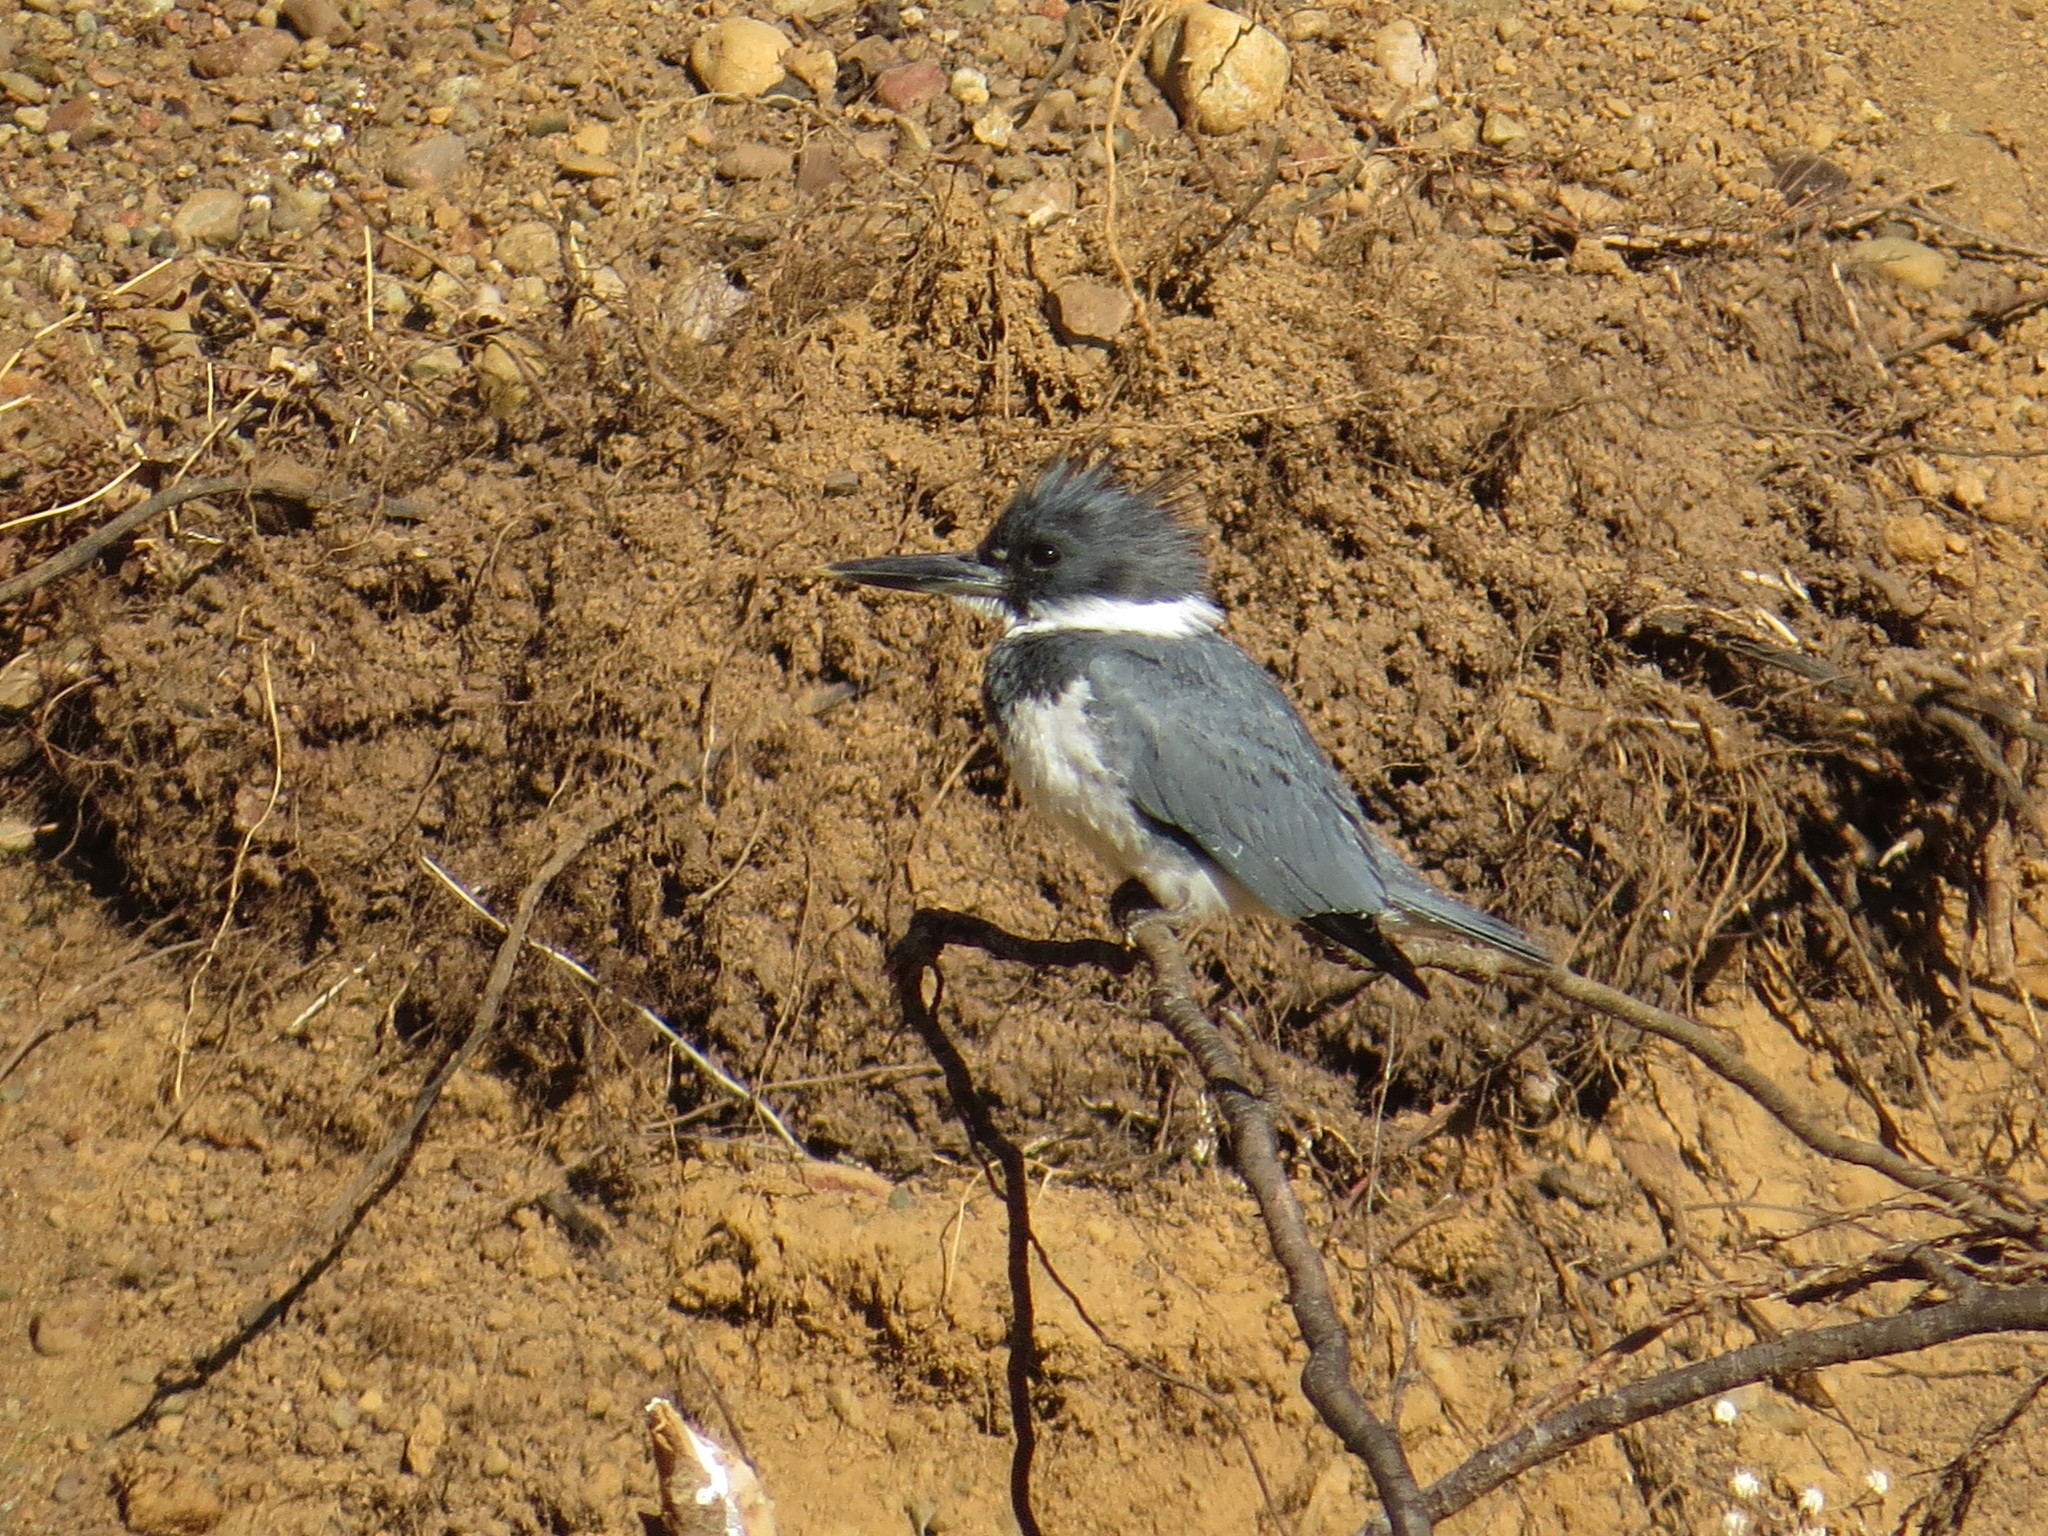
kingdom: Animalia
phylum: Chordata
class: Aves
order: Coraciiformes
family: Alcedinidae
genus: Megaceryle
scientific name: Megaceryle alcyon
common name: Belted kingfisher
